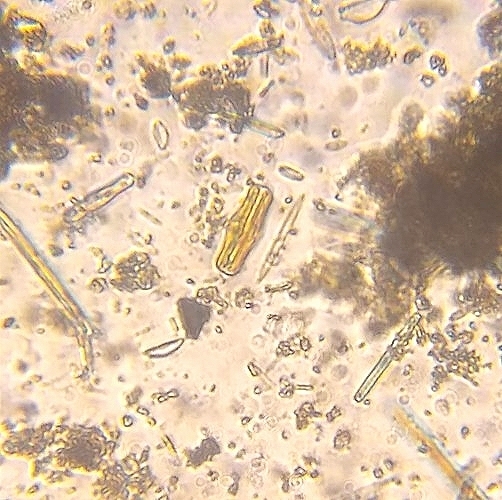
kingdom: Chromista
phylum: Ochrophyta
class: Bacillariophyceae
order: Rhopalodiales
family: Rhopalodiaceae
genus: Epithemia
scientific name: Epithemia gibba
